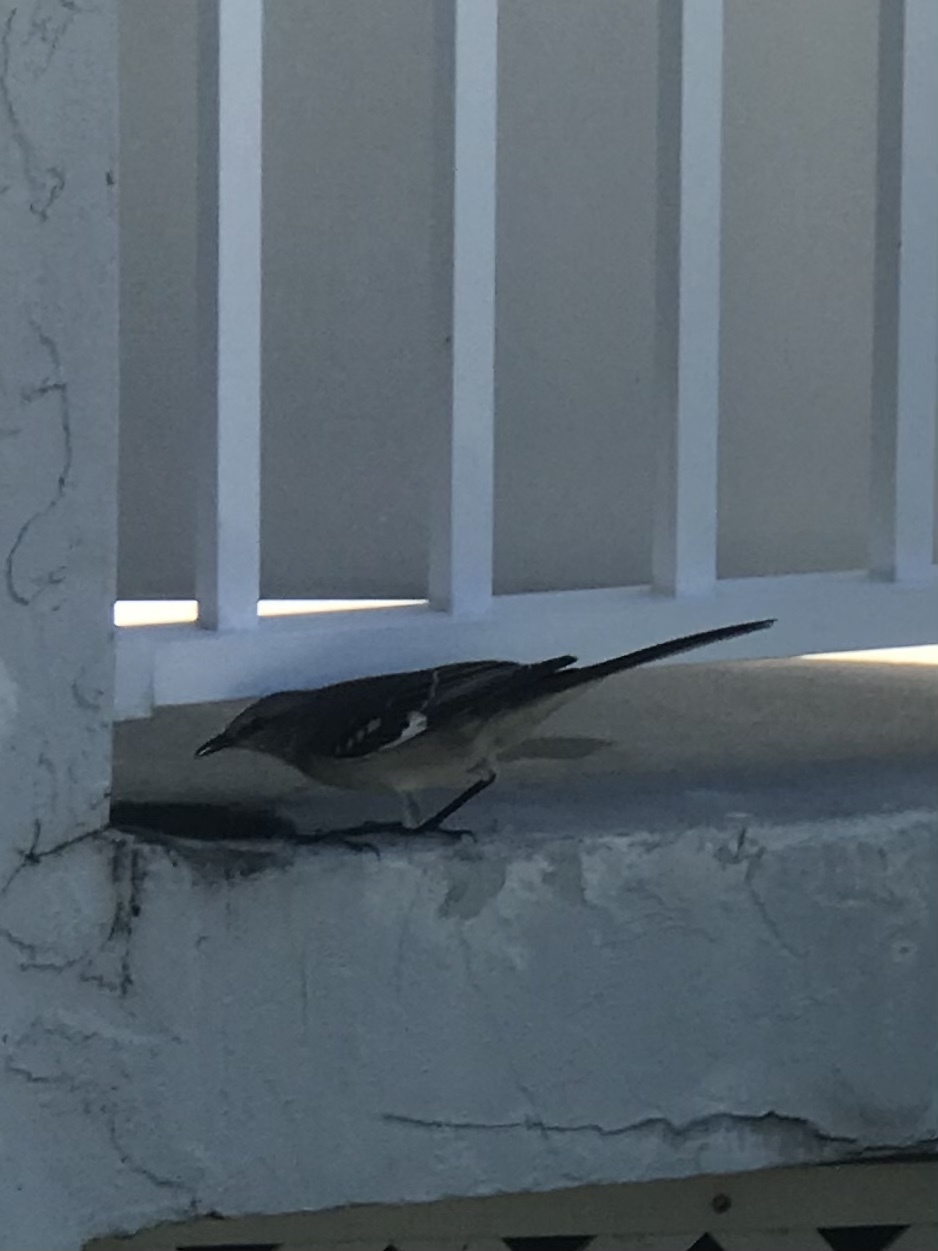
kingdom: Animalia
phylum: Chordata
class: Aves
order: Passeriformes
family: Mimidae
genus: Mimus
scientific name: Mimus polyglottos
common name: Northern mockingbird
